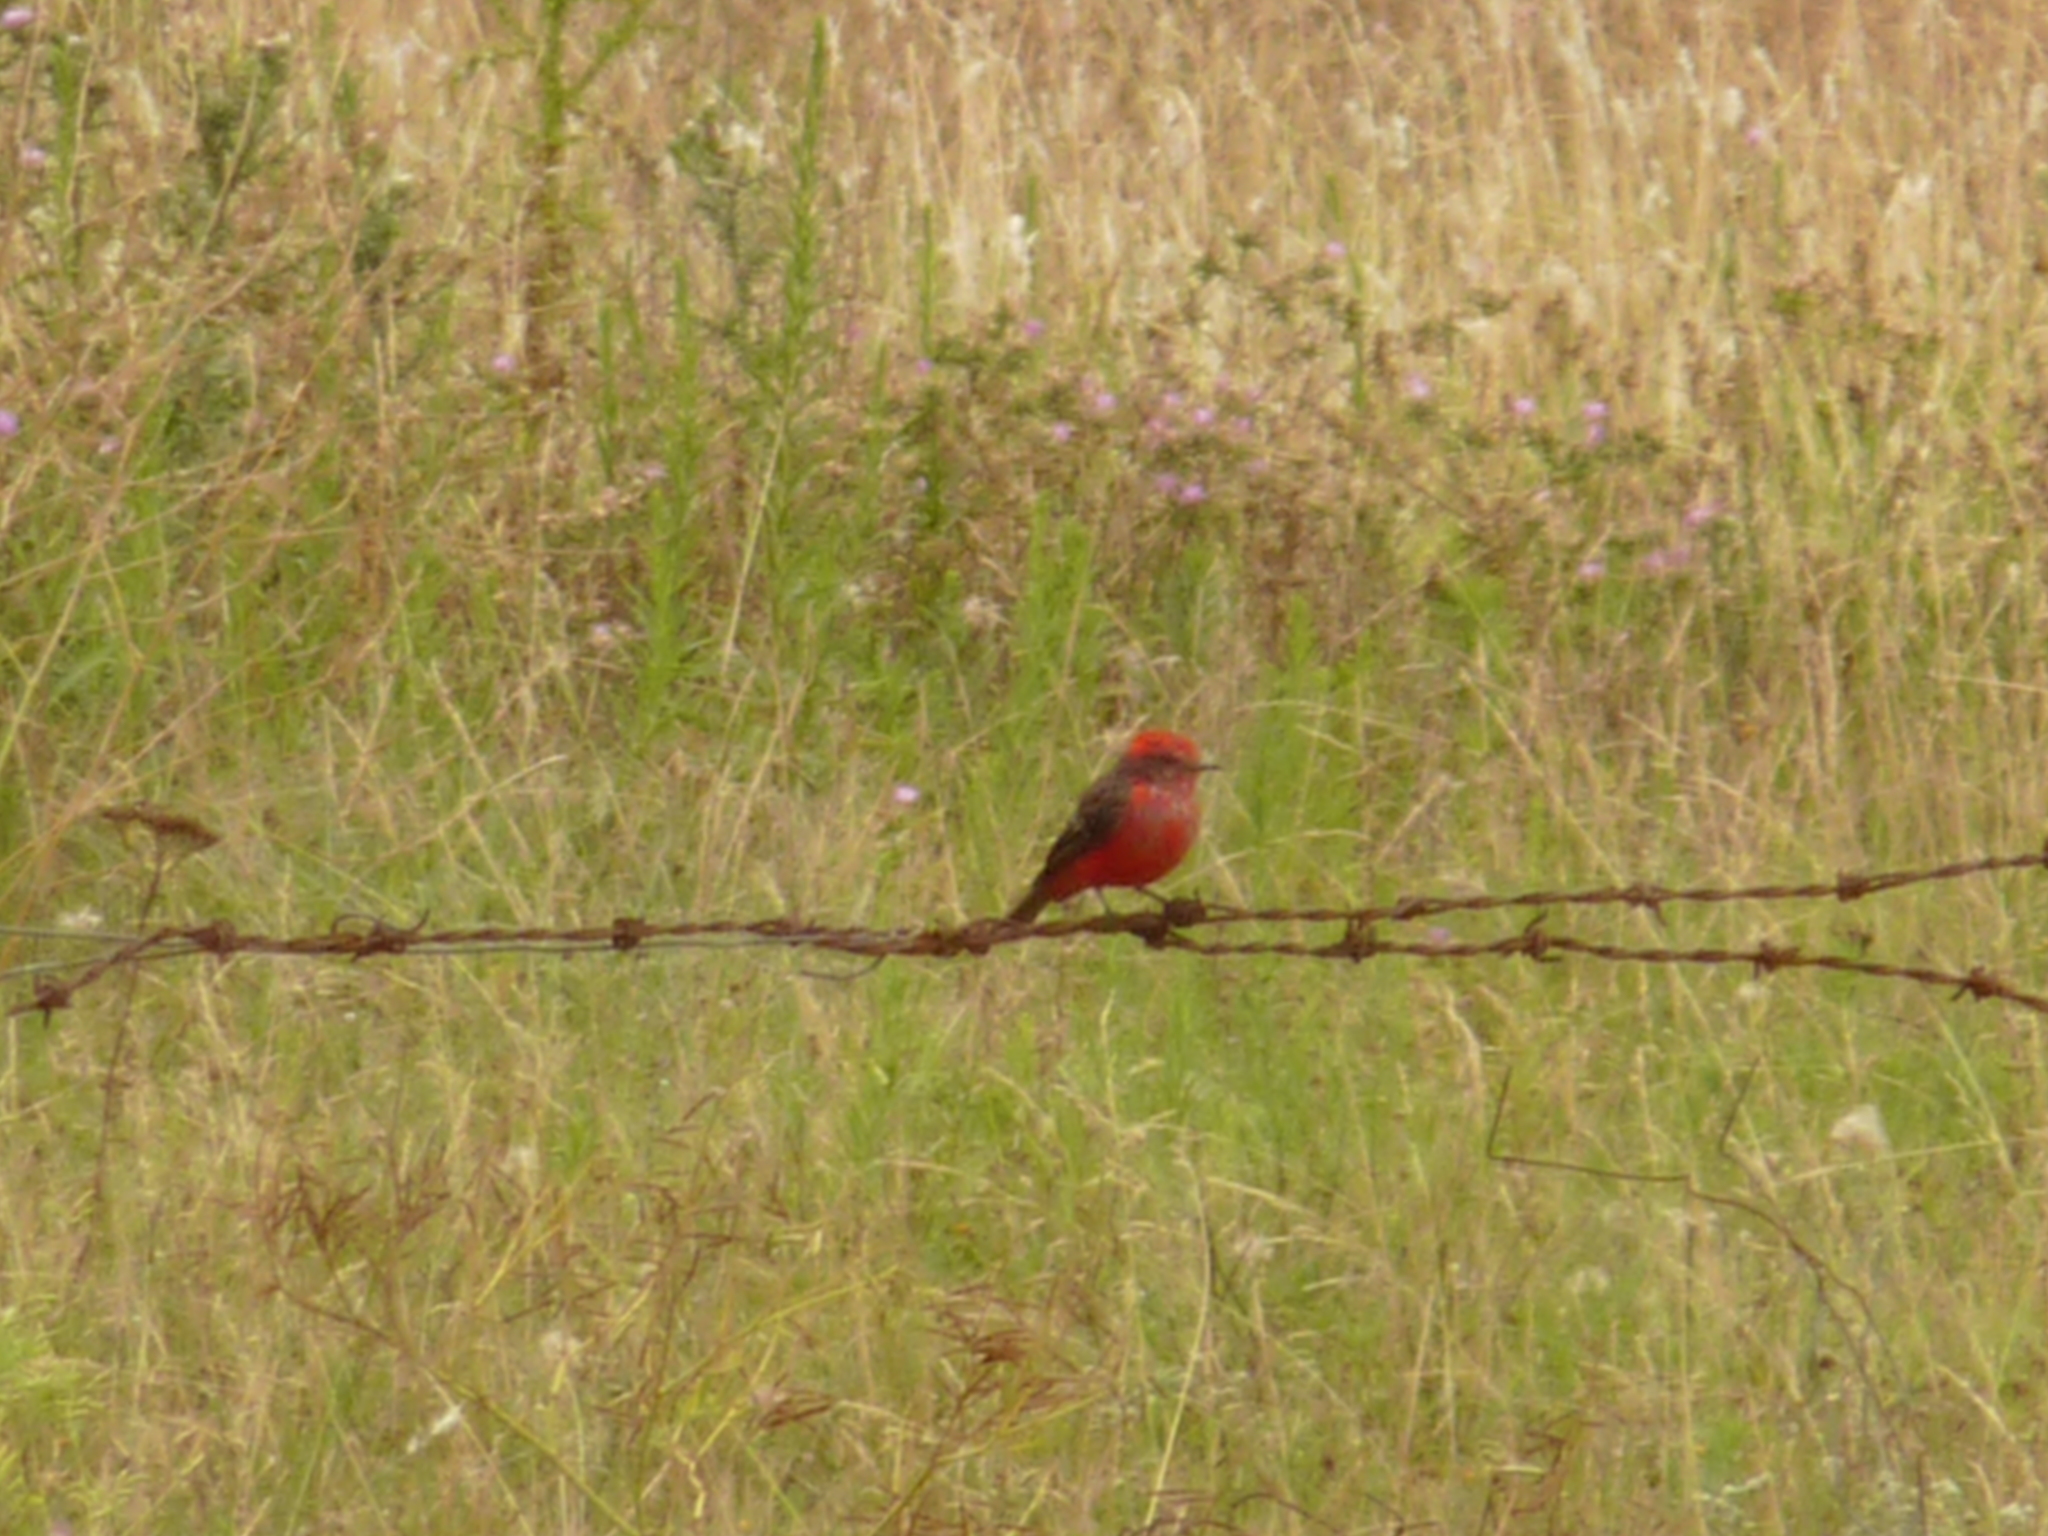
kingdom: Animalia
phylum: Chordata
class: Aves
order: Passeriformes
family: Tyrannidae
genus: Pyrocephalus
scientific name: Pyrocephalus rubinus
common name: Vermilion flycatcher
